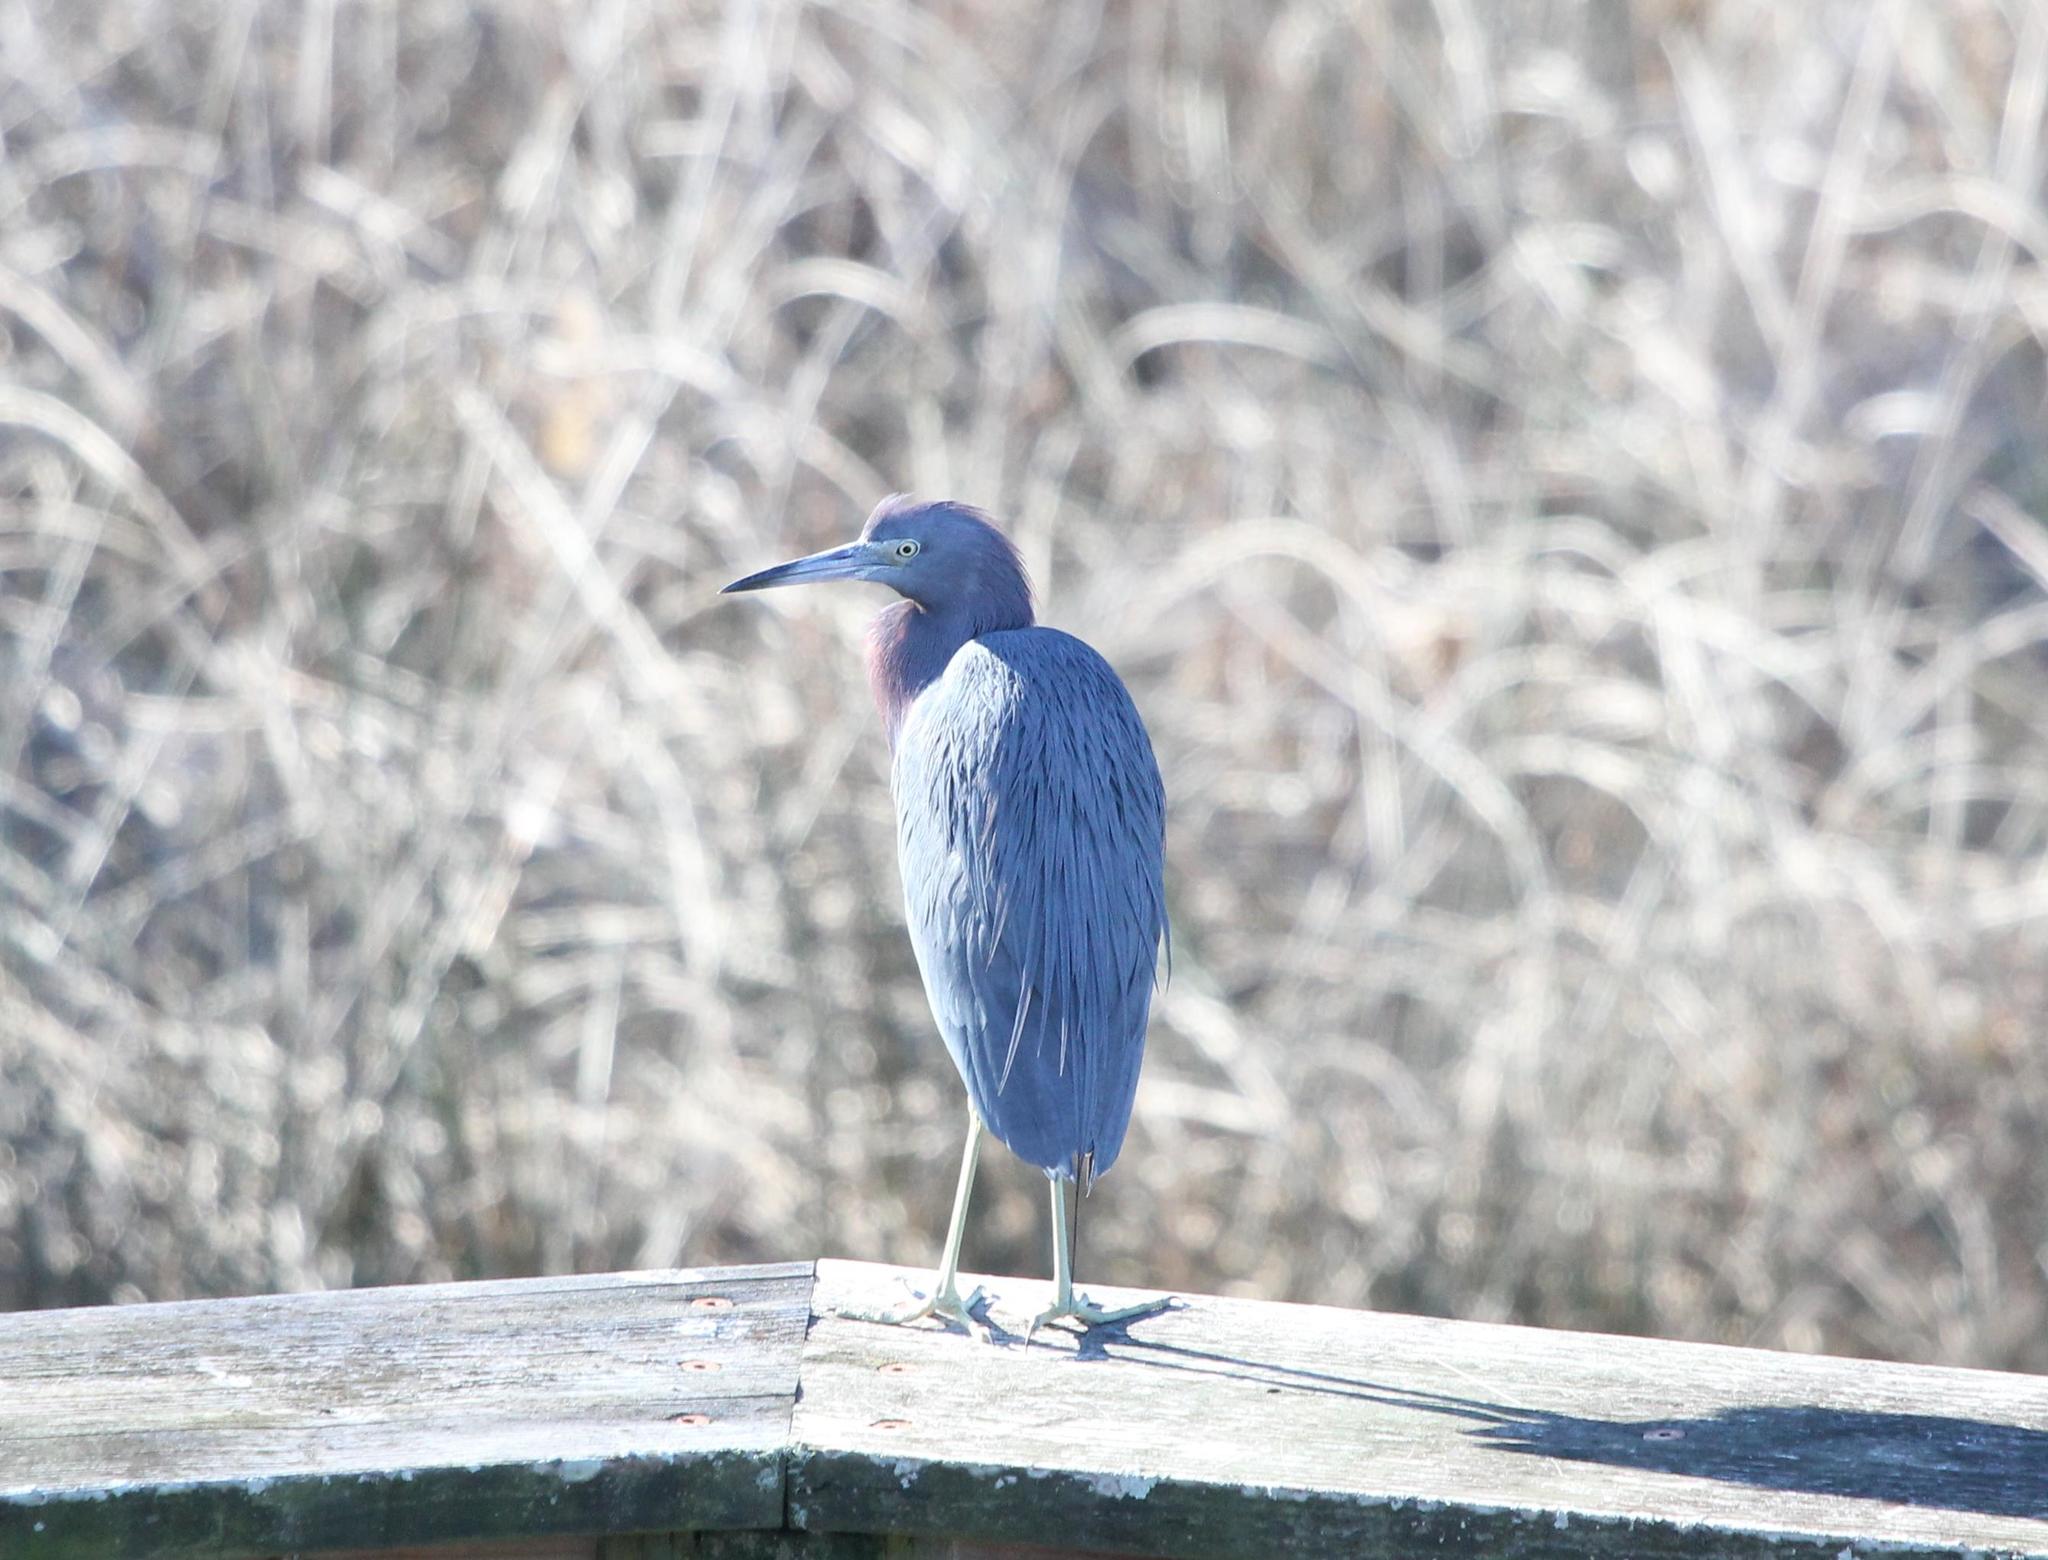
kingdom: Animalia
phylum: Chordata
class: Aves
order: Pelecaniformes
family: Ardeidae
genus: Egretta
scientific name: Egretta caerulea
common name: Little blue heron
